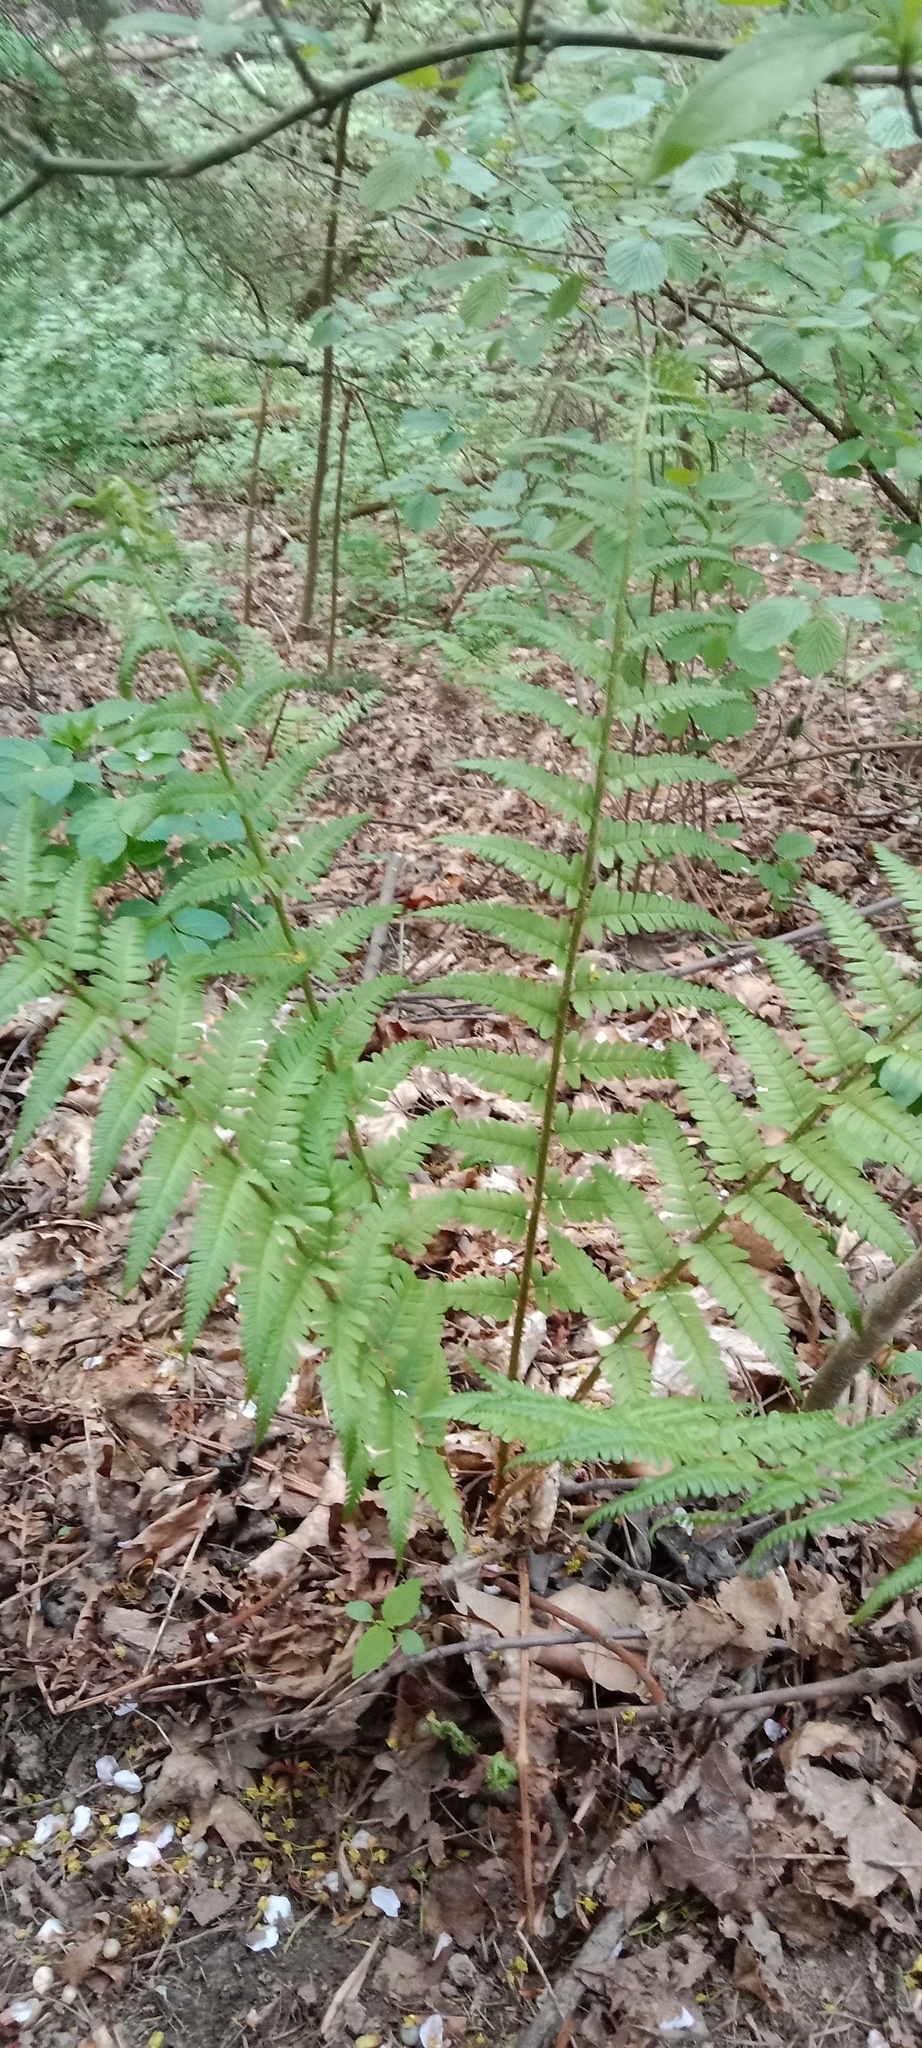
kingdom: Plantae
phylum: Tracheophyta
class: Polypodiopsida
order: Polypodiales
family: Dryopteridaceae
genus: Dryopteris
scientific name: Dryopteris filix-mas
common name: Male fern
